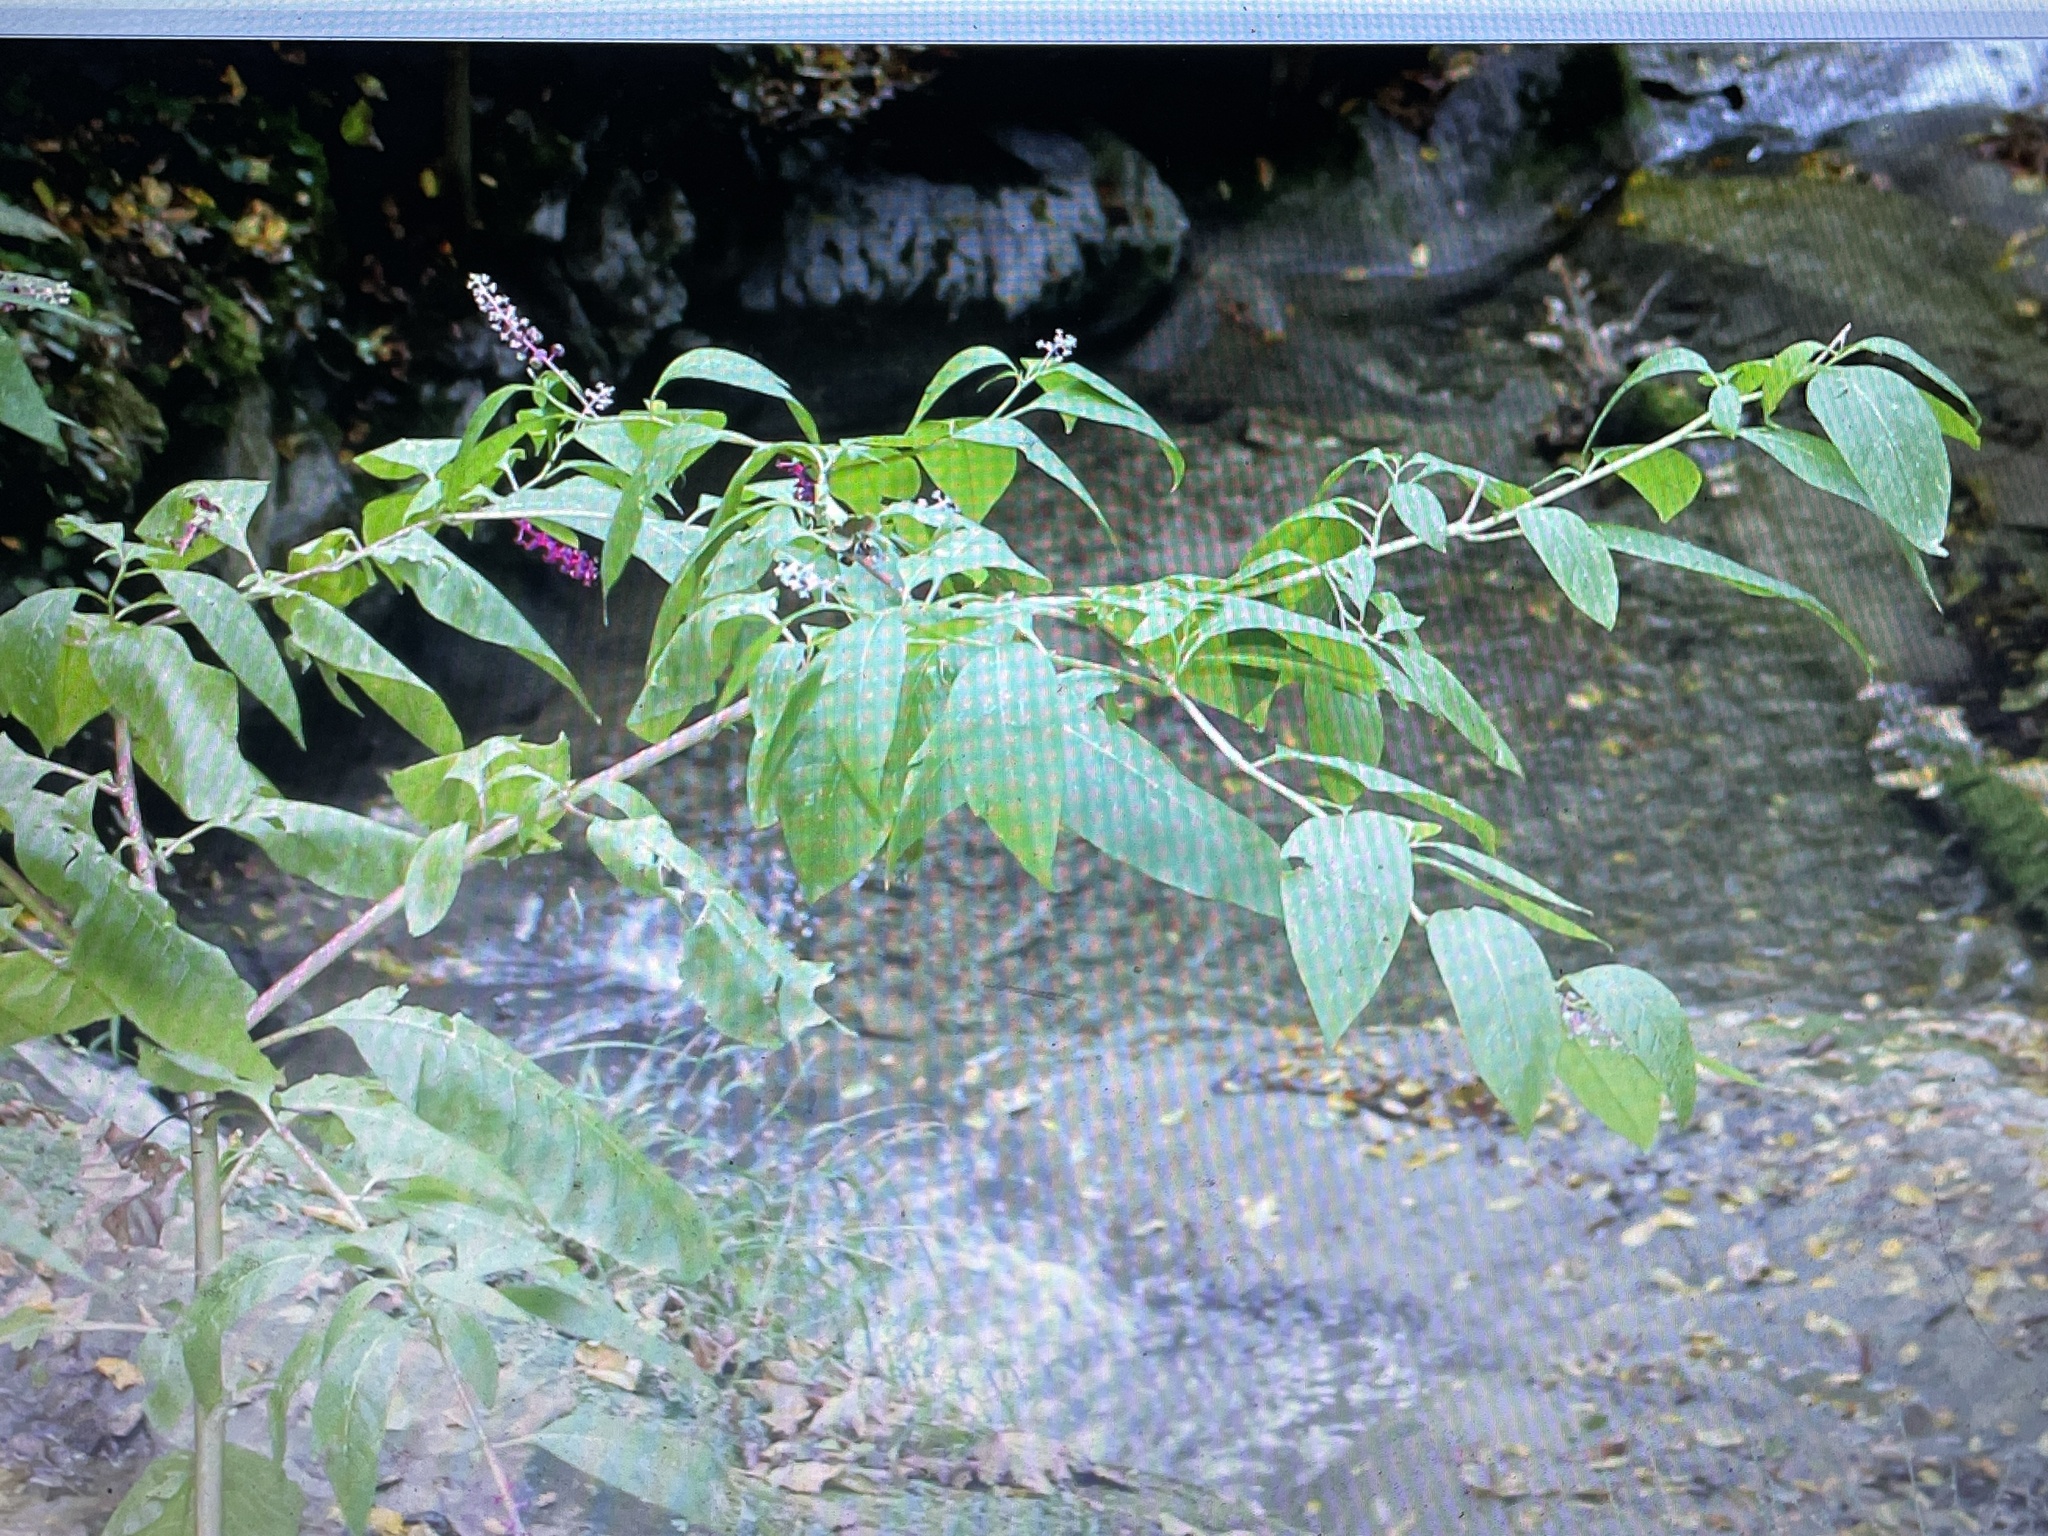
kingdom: Plantae
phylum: Tracheophyta
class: Magnoliopsida
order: Caryophyllales
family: Phytolaccaceae
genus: Phytolacca
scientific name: Phytolacca americana
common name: American pokeweed
